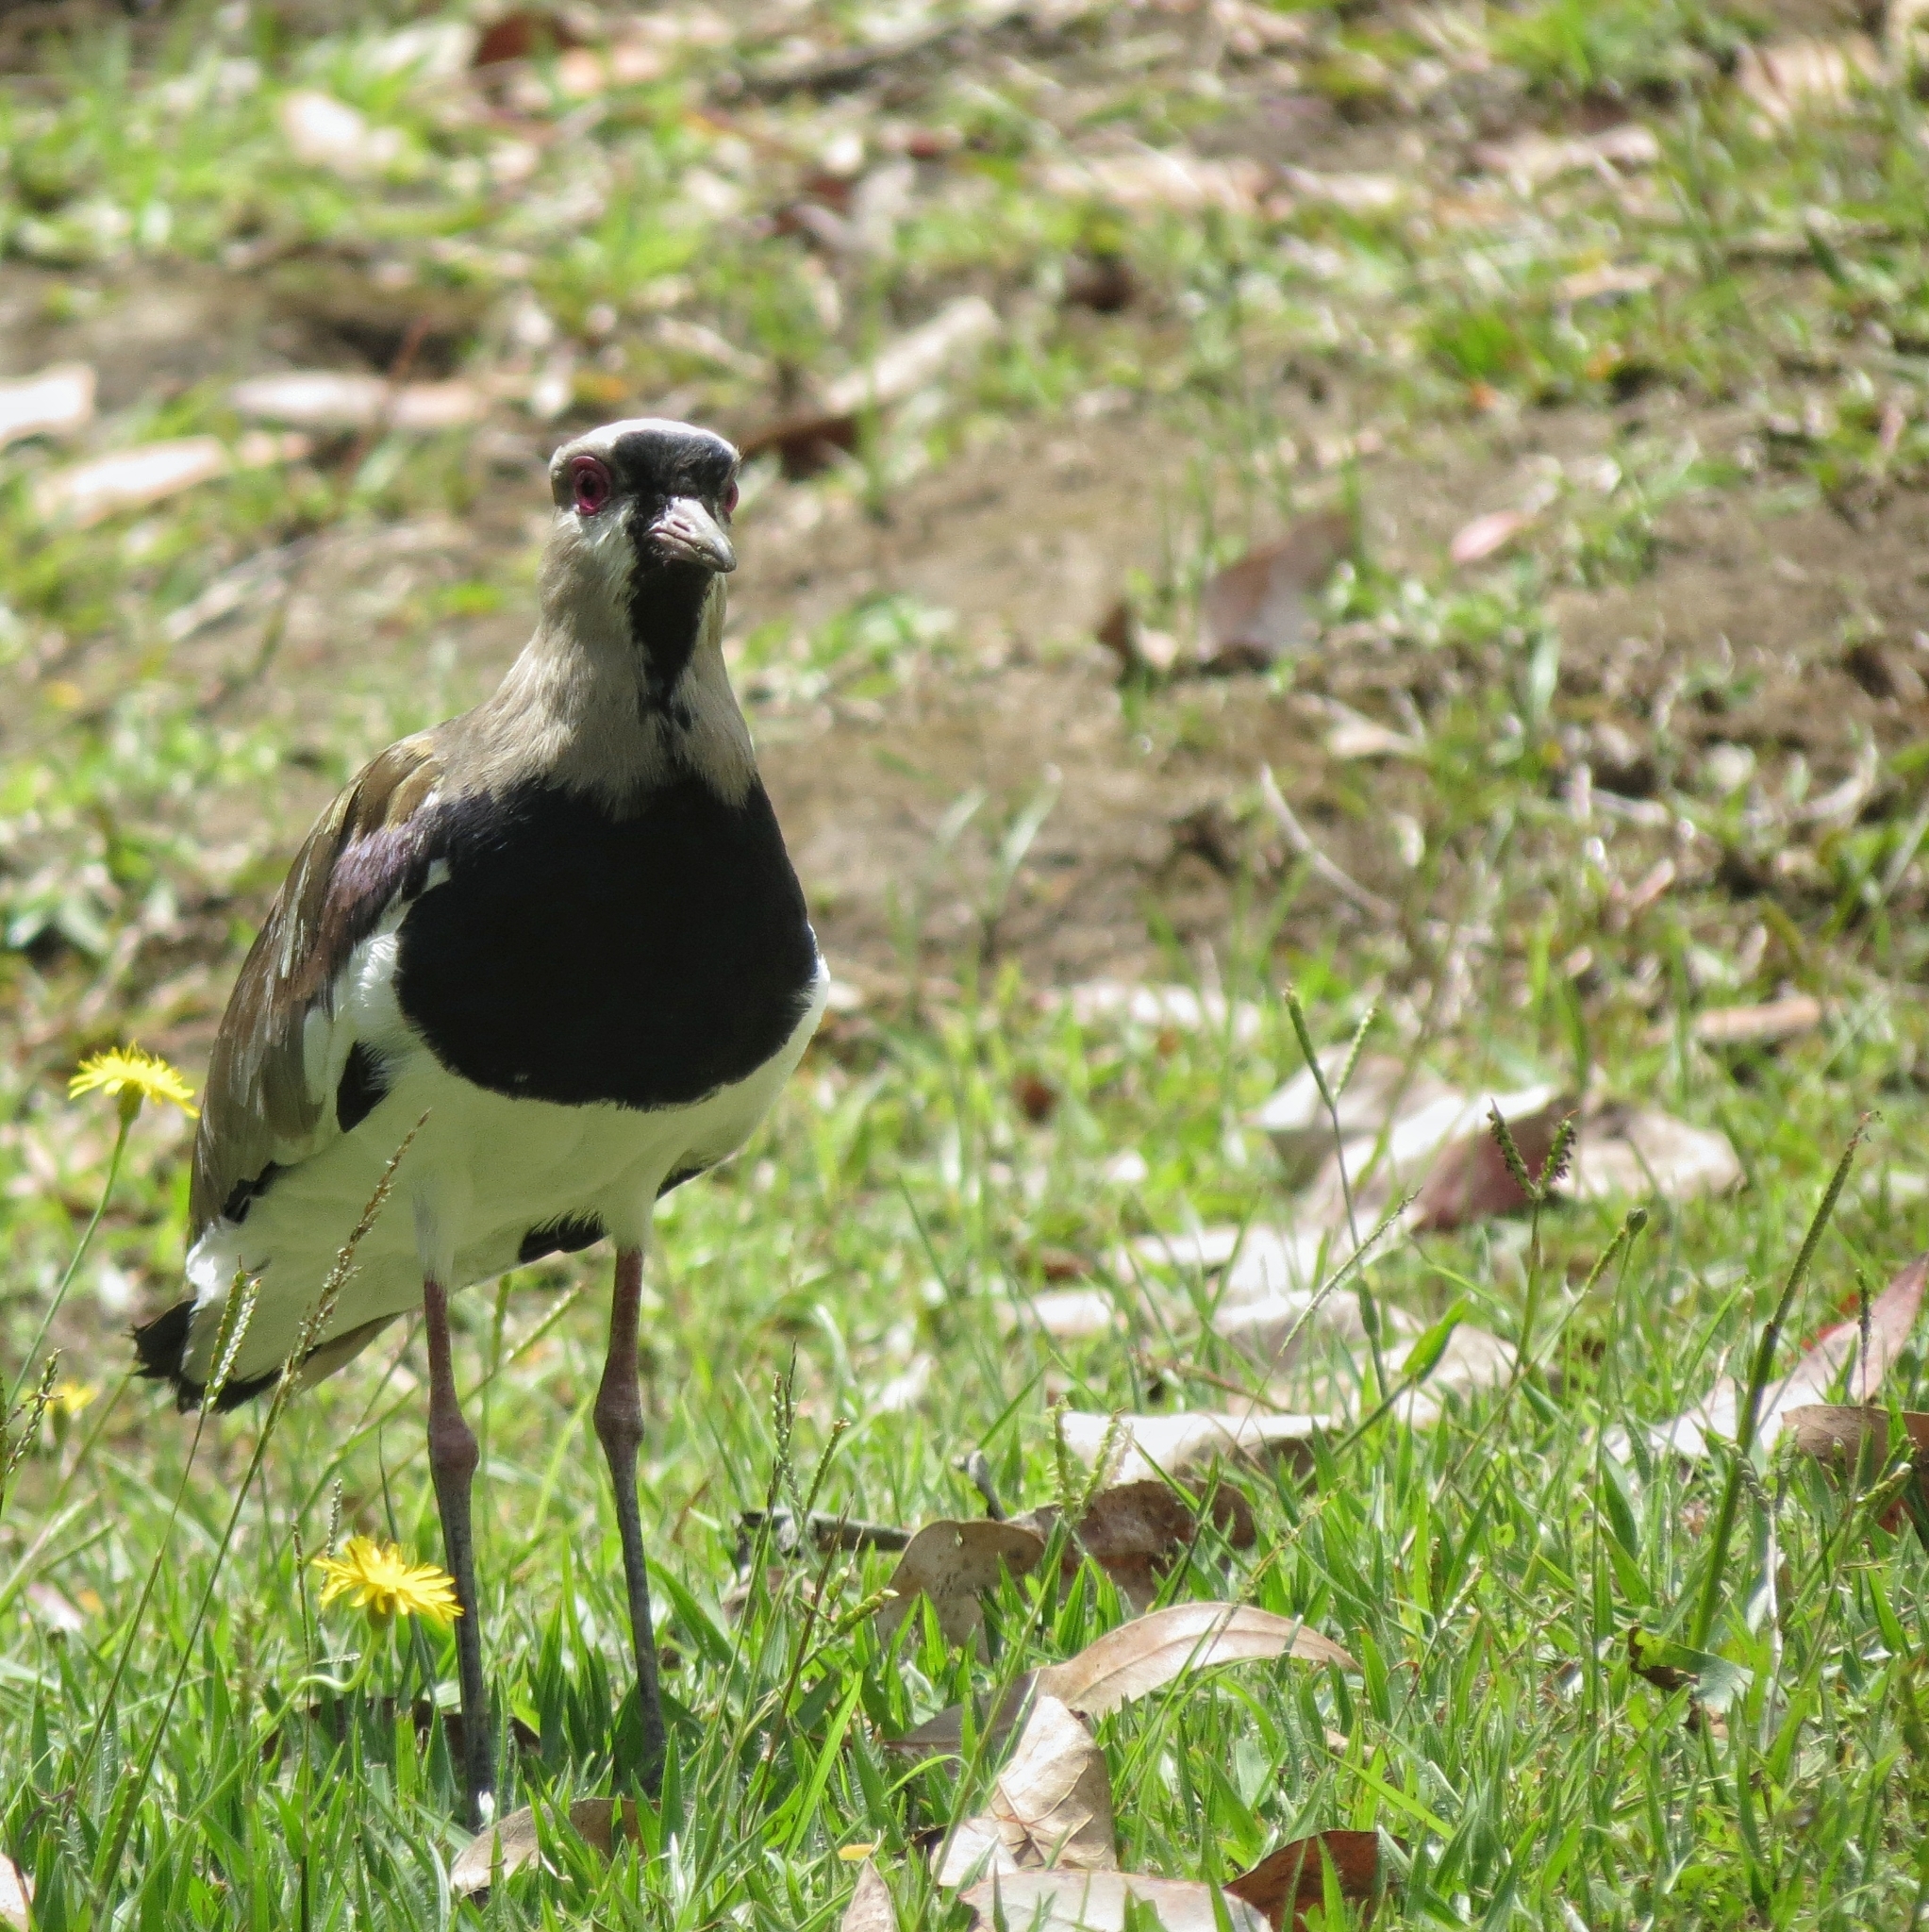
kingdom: Animalia
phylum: Chordata
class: Aves
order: Charadriiformes
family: Charadriidae
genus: Vanellus
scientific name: Vanellus chilensis
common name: Southern lapwing
